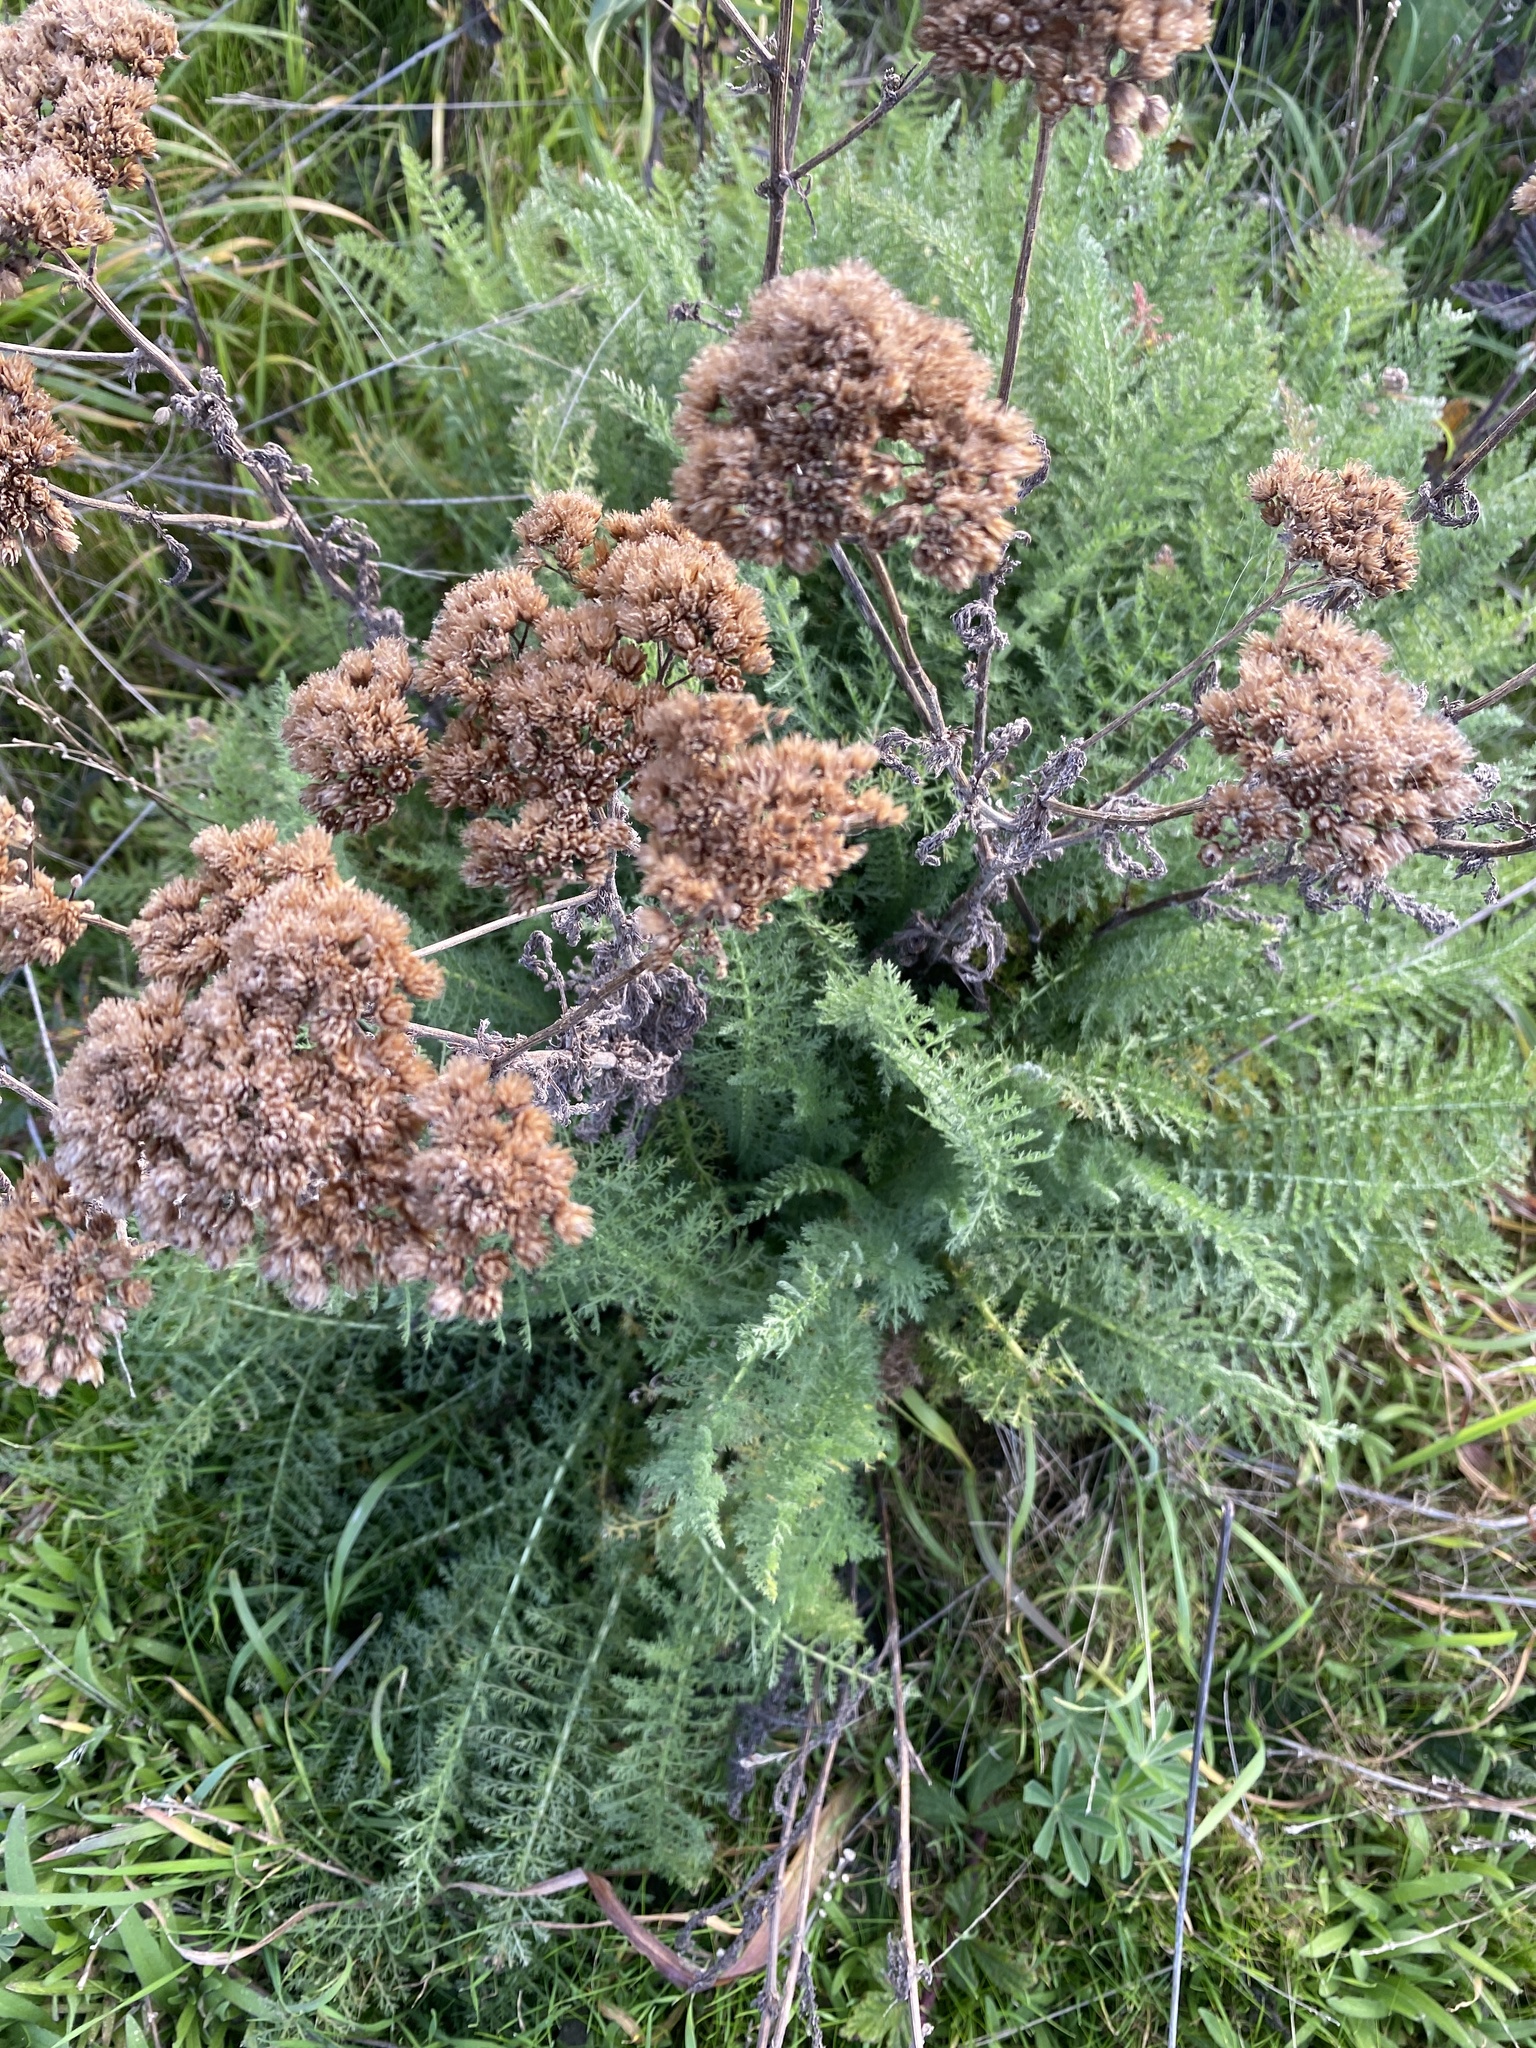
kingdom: Plantae
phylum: Tracheophyta
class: Magnoliopsida
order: Asterales
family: Asteraceae
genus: Achillea
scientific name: Achillea millefolium
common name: Yarrow
